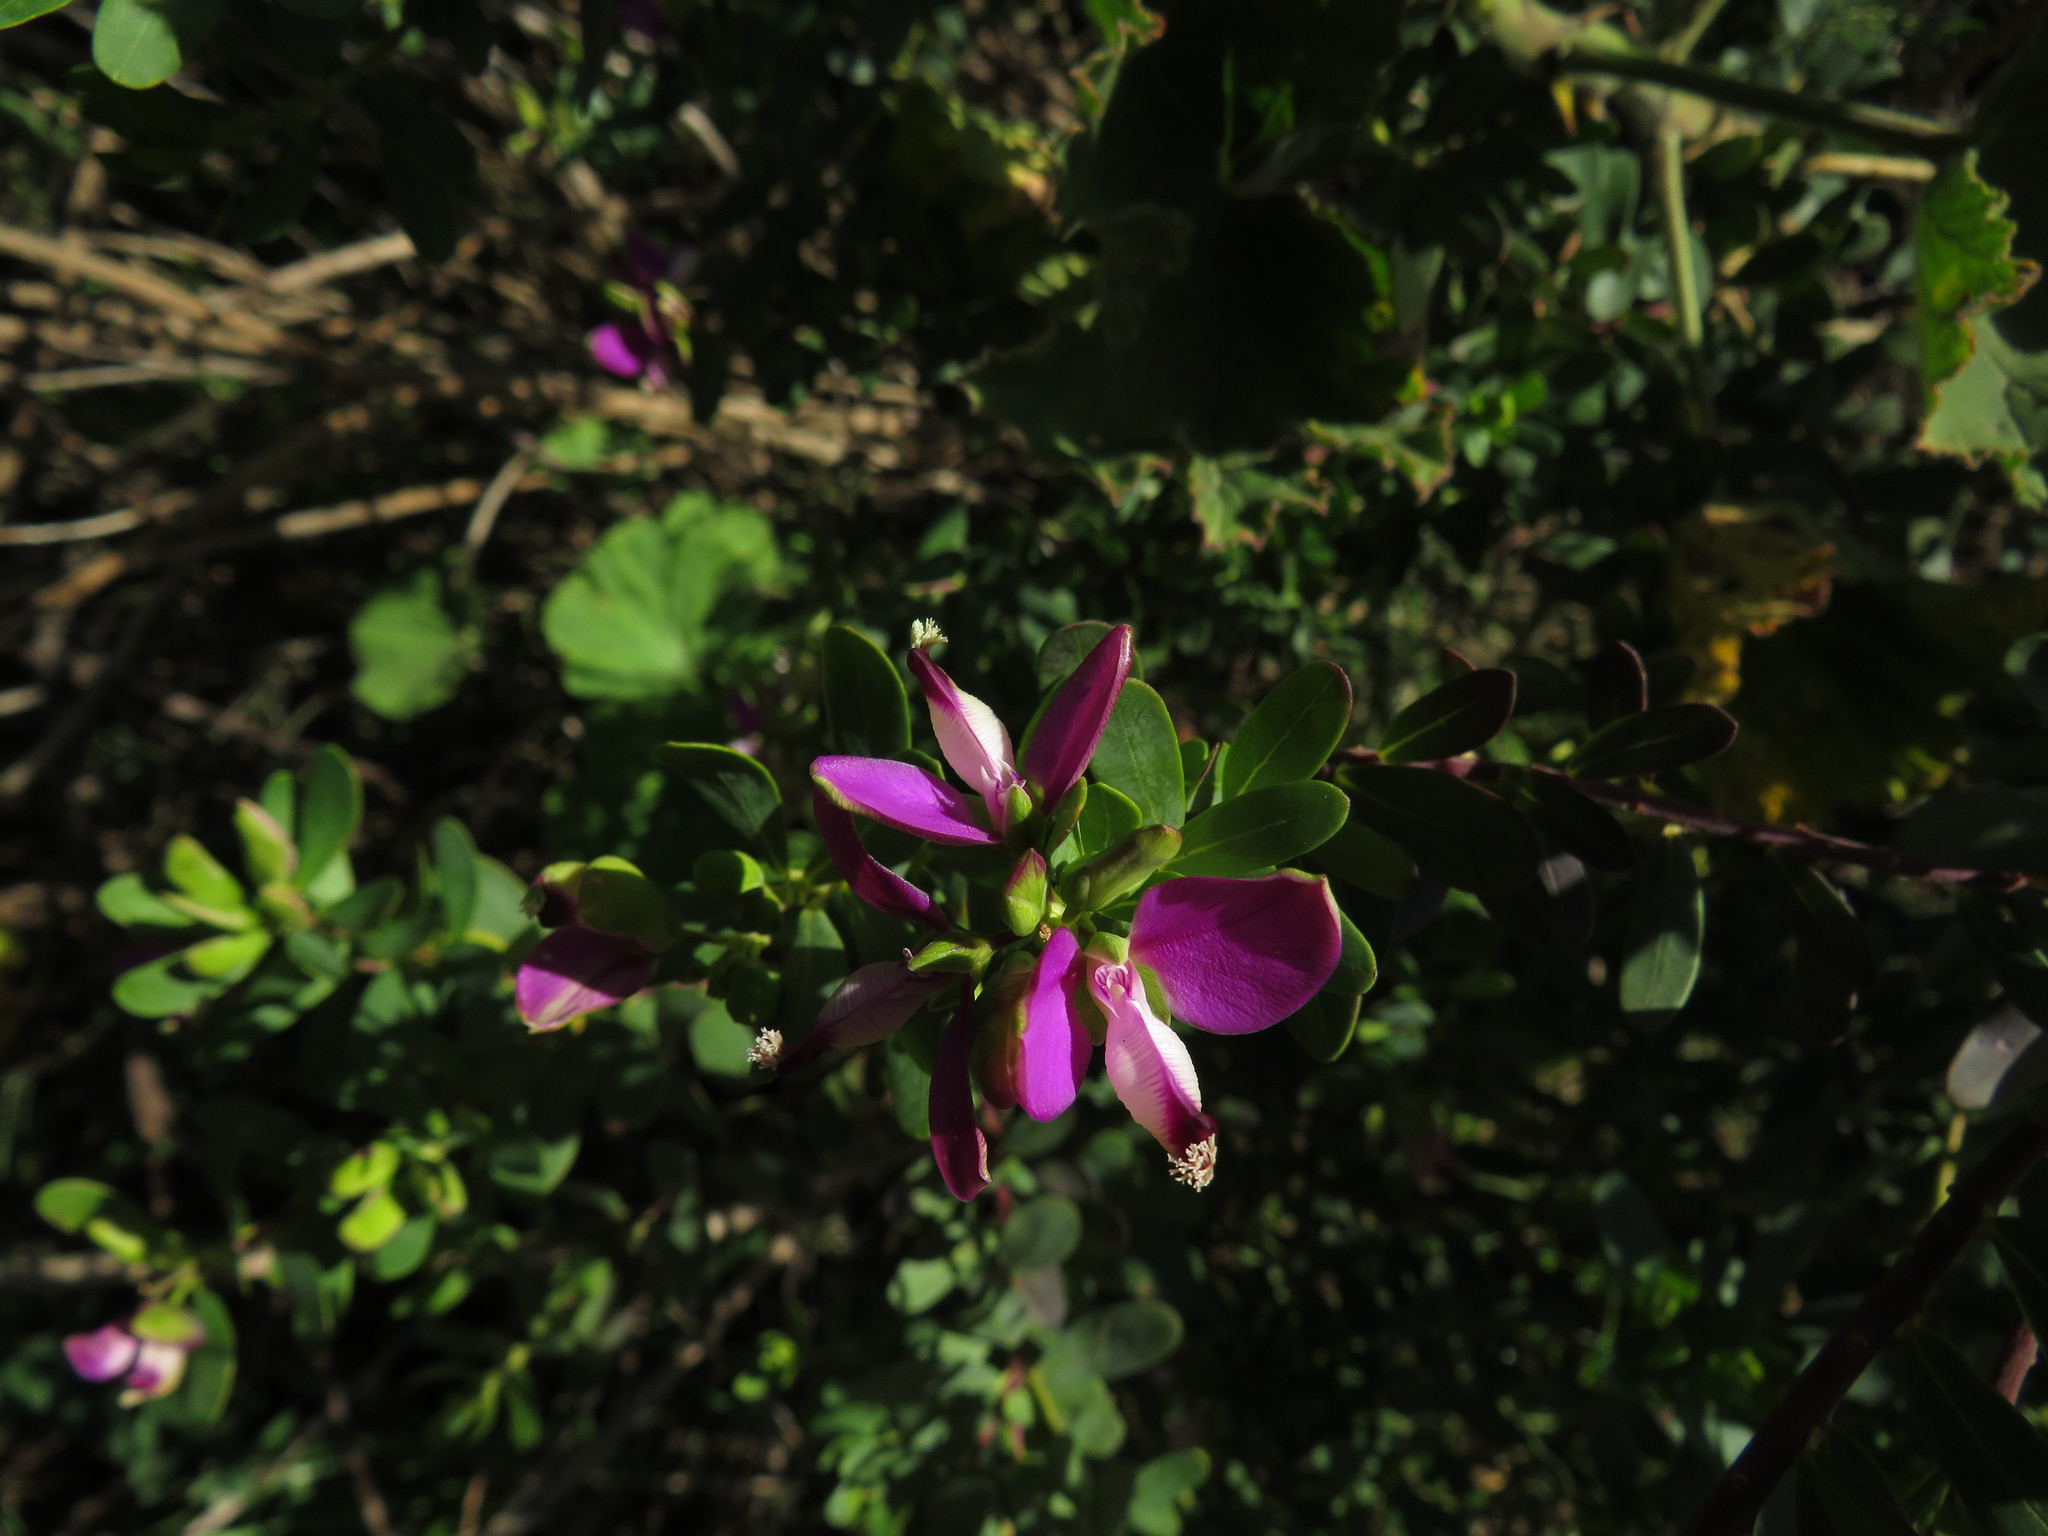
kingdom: Plantae
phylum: Tracheophyta
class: Magnoliopsida
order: Fabales
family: Polygalaceae
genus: Polygala
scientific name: Polygala myrtifolia
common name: Myrtle-leaf milkwort
